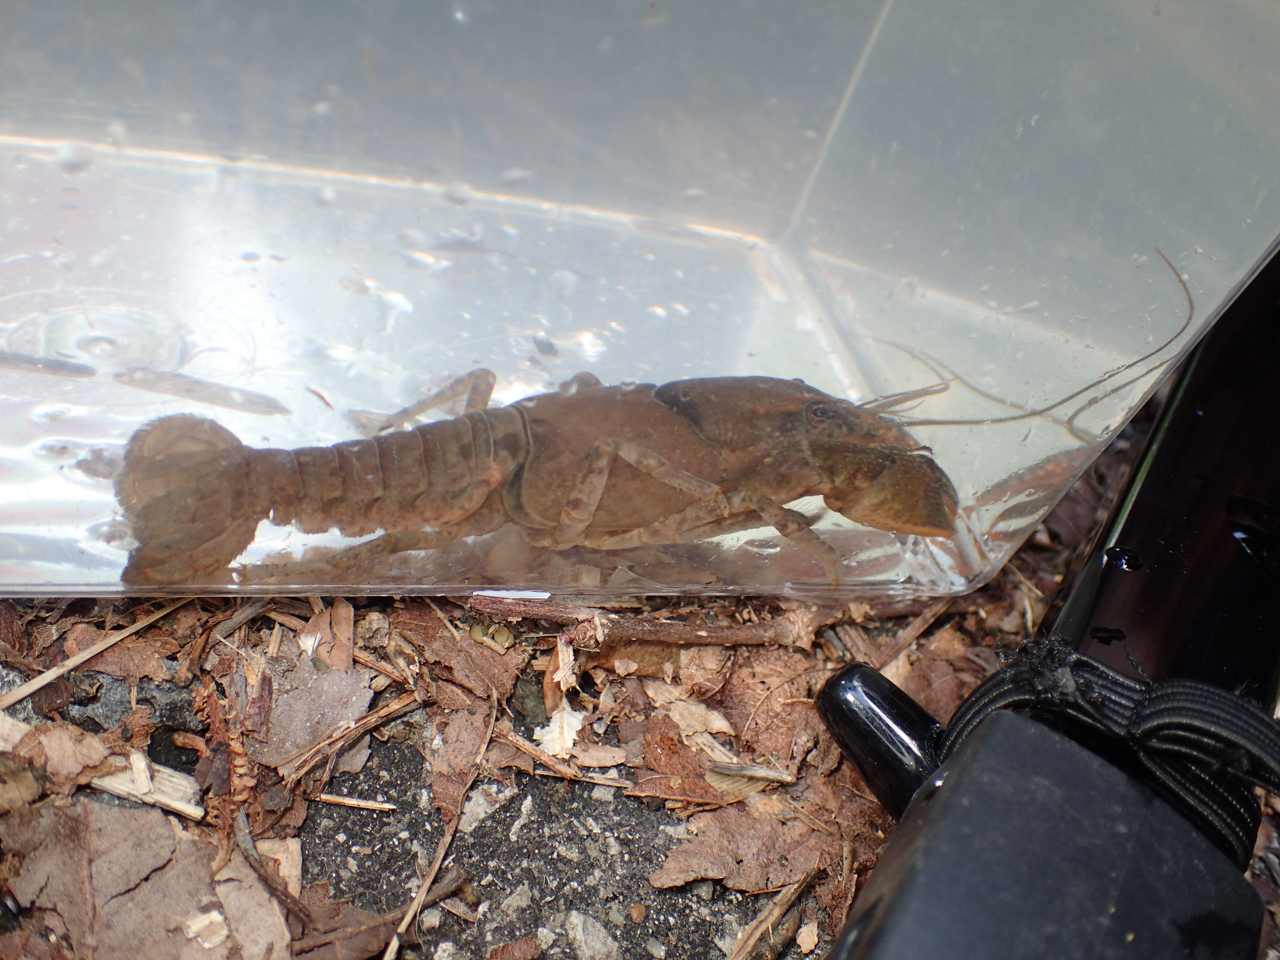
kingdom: Animalia
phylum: Arthropoda
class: Malacostraca
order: Decapoda
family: Cambaridae
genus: Cambarus
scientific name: Cambarus striatus
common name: Ambiguous crayfish
